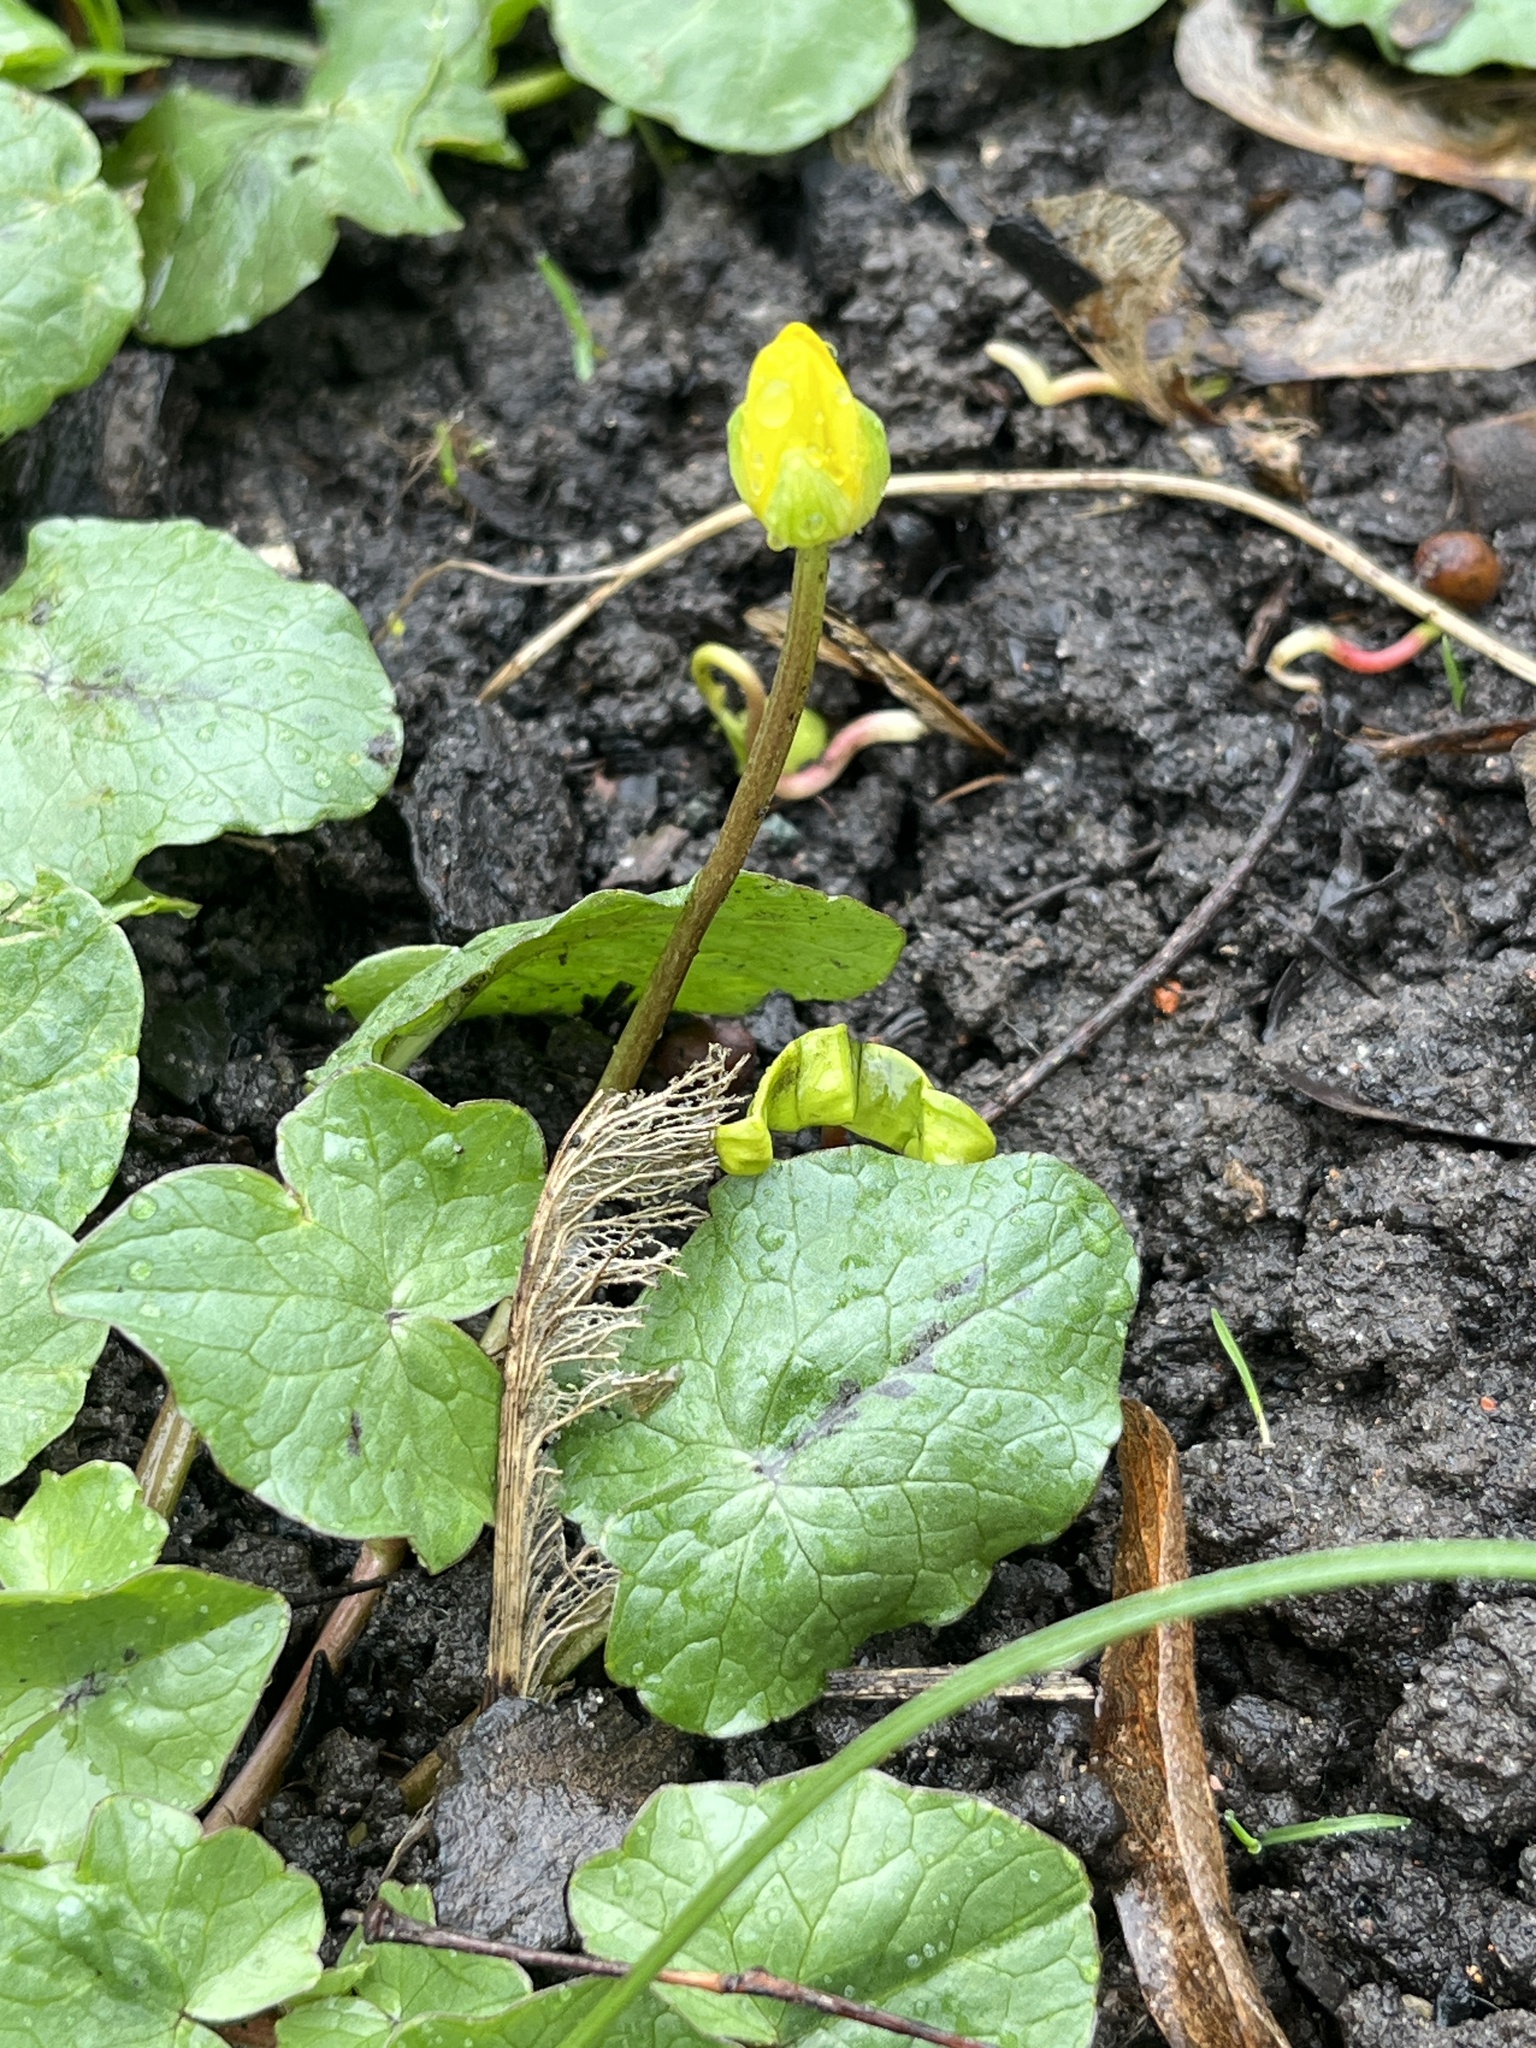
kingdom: Plantae
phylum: Tracheophyta
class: Magnoliopsida
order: Ranunculales
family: Ranunculaceae
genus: Ficaria
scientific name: Ficaria verna
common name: Lesser celandine
